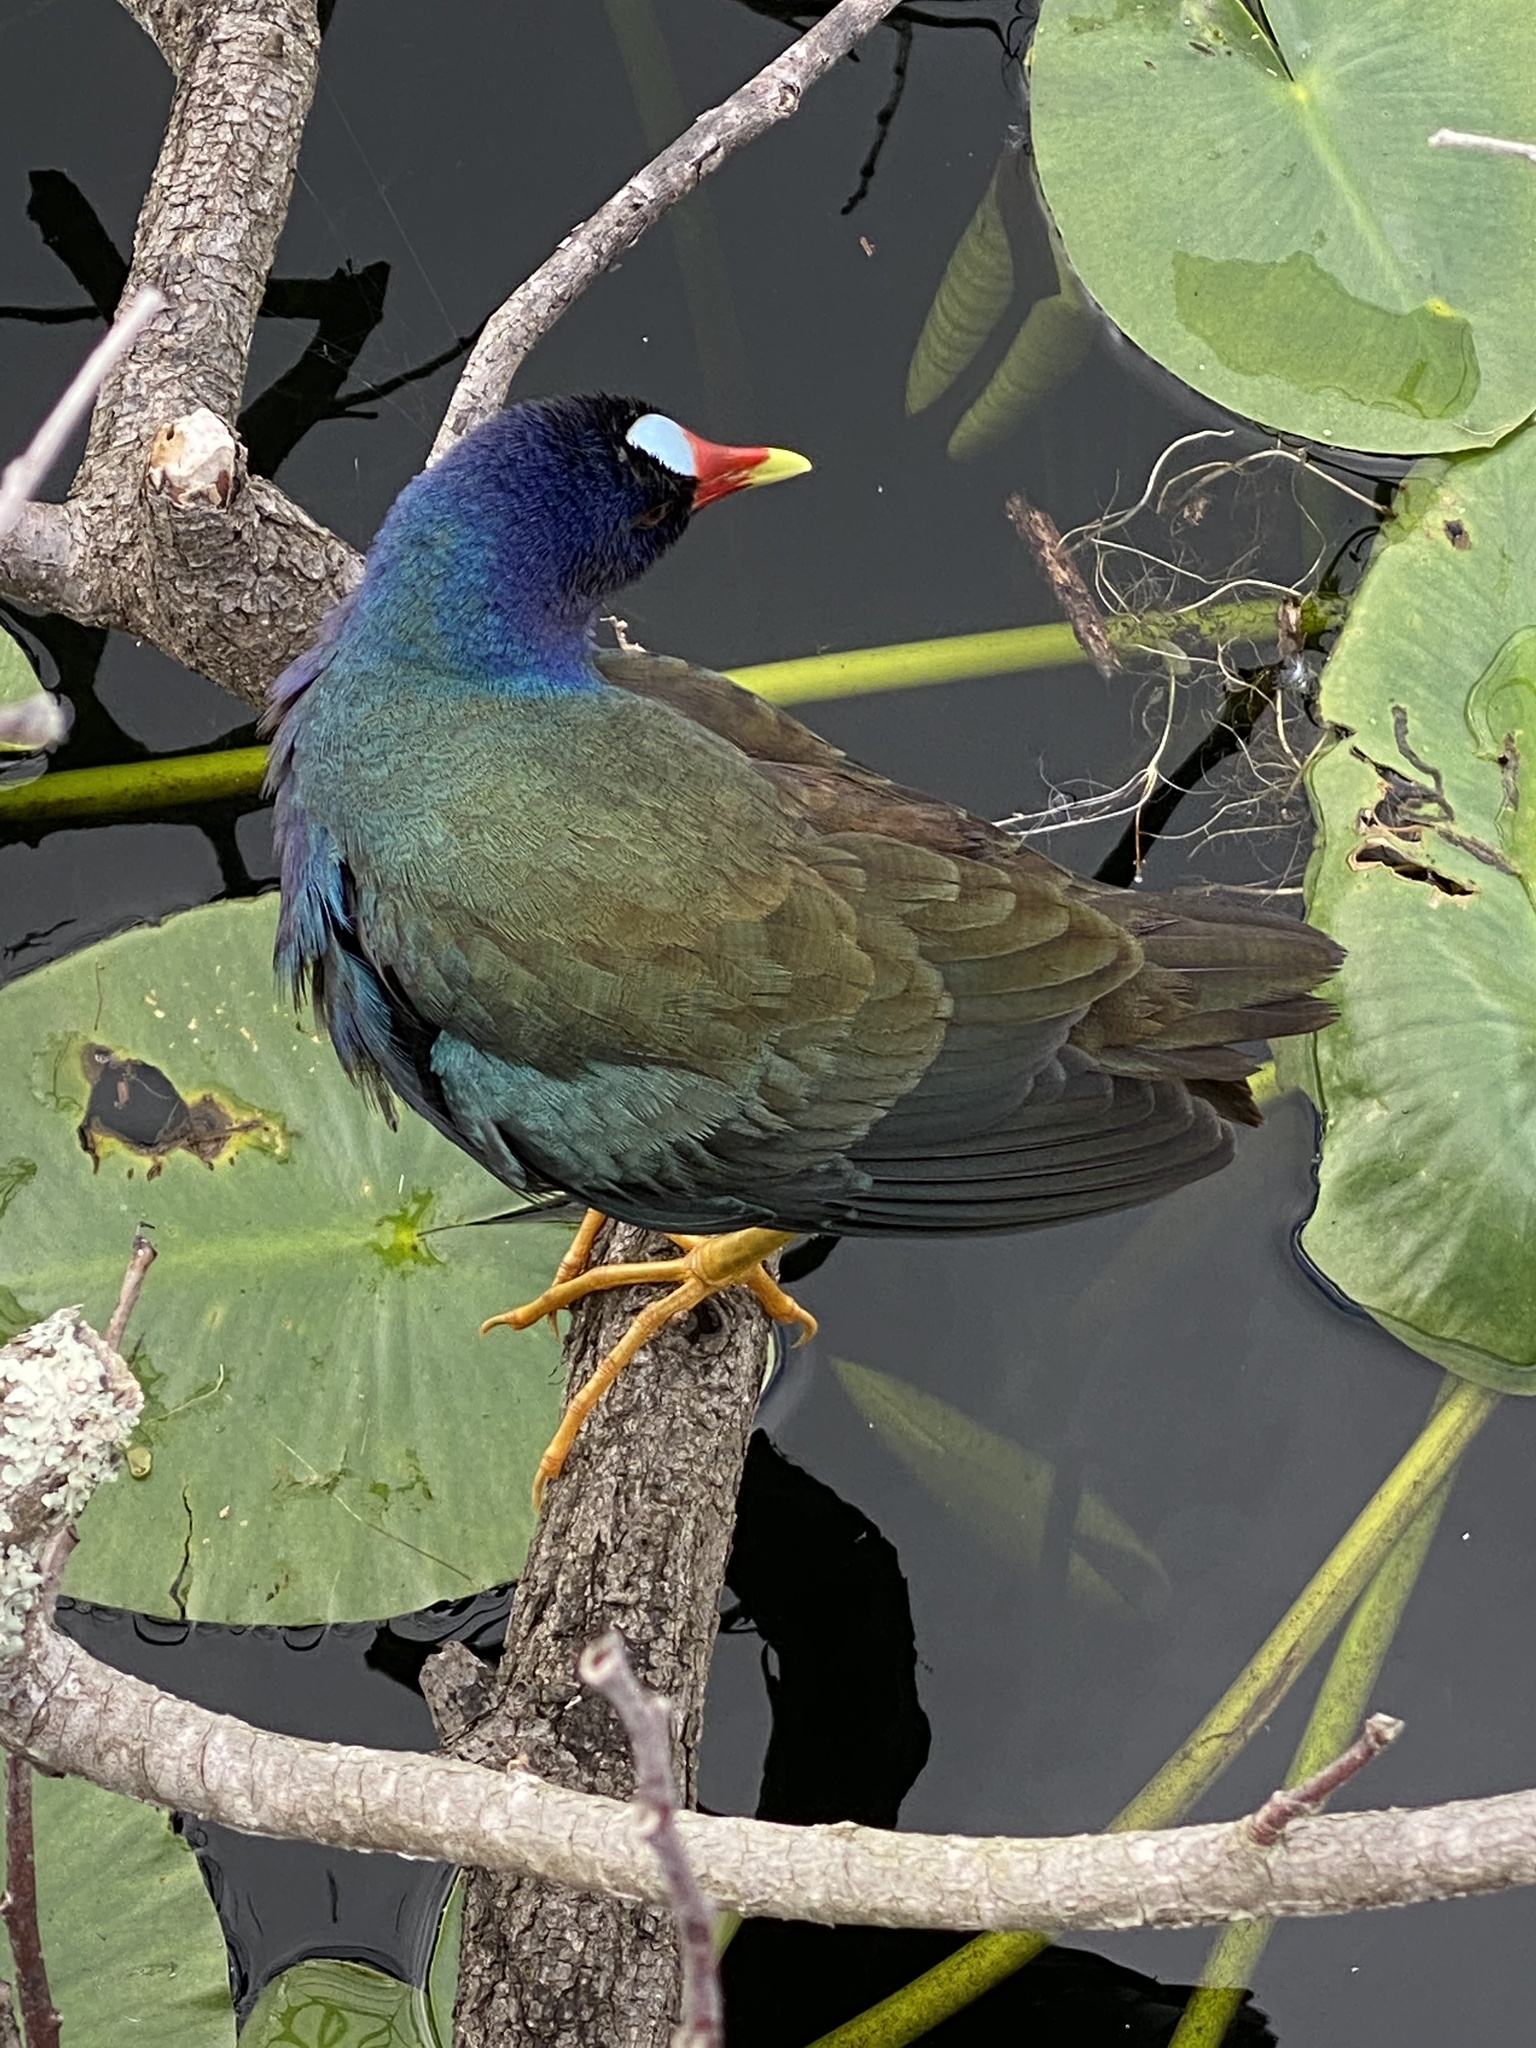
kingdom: Animalia
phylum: Chordata
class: Aves
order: Gruiformes
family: Rallidae
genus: Porphyrio
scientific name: Porphyrio martinica
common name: Purple gallinule
